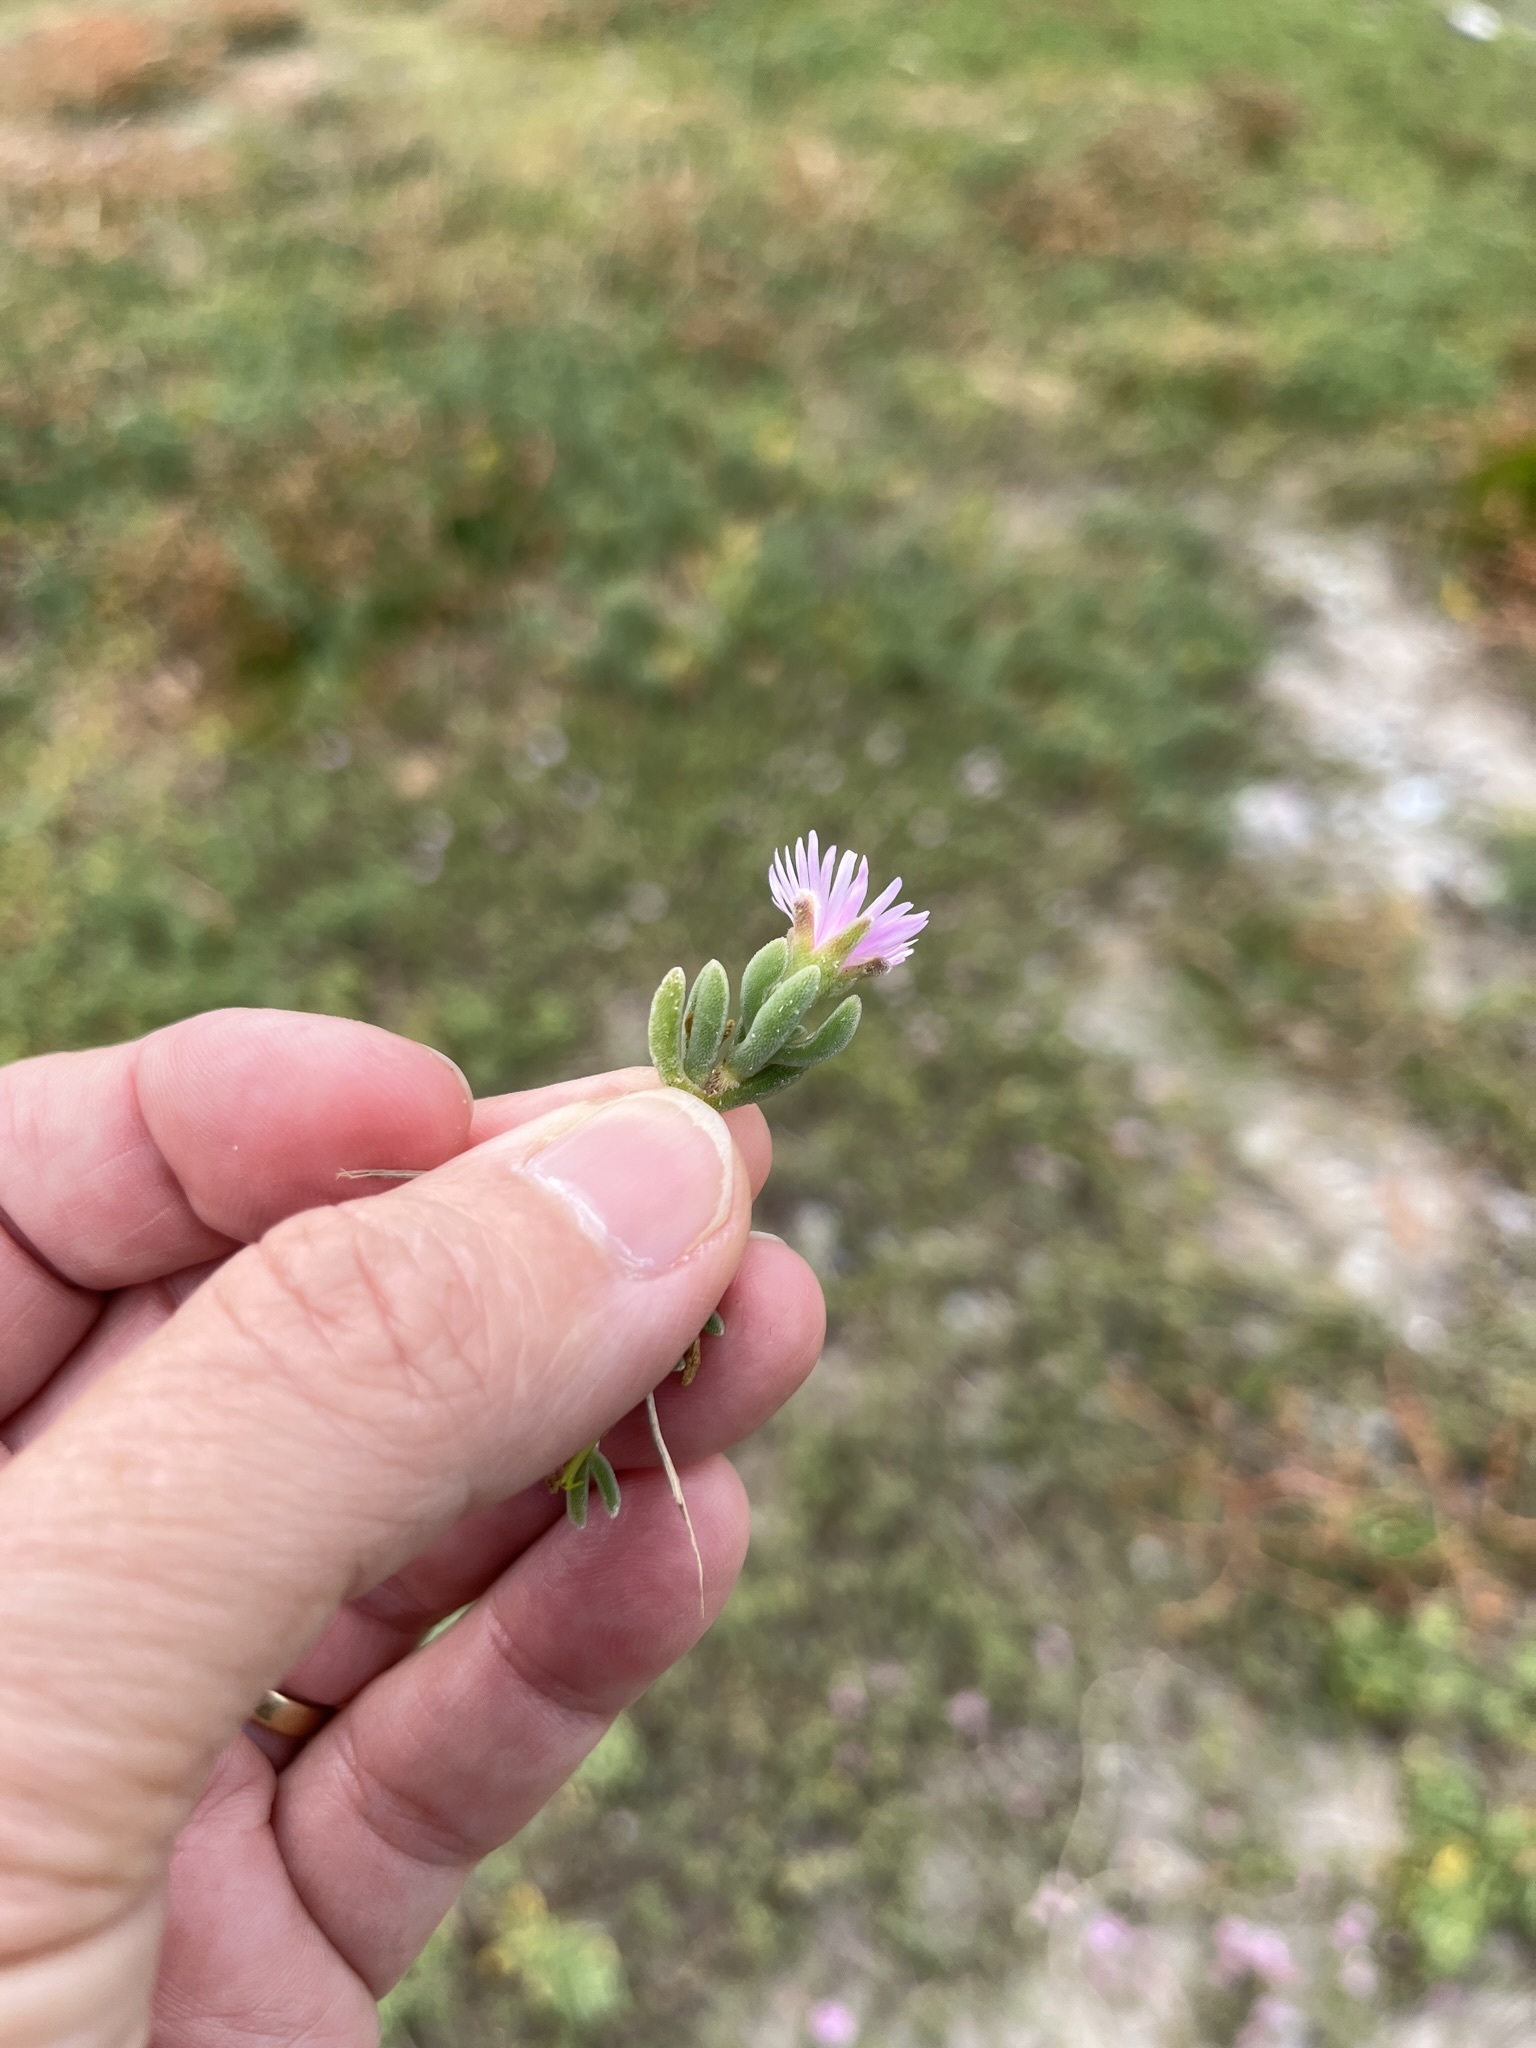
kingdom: Plantae
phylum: Tracheophyta
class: Magnoliopsida
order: Caryophyllales
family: Aizoaceae
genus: Drosanthemum
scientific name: Drosanthemum candens
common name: Rodondo-creeper
